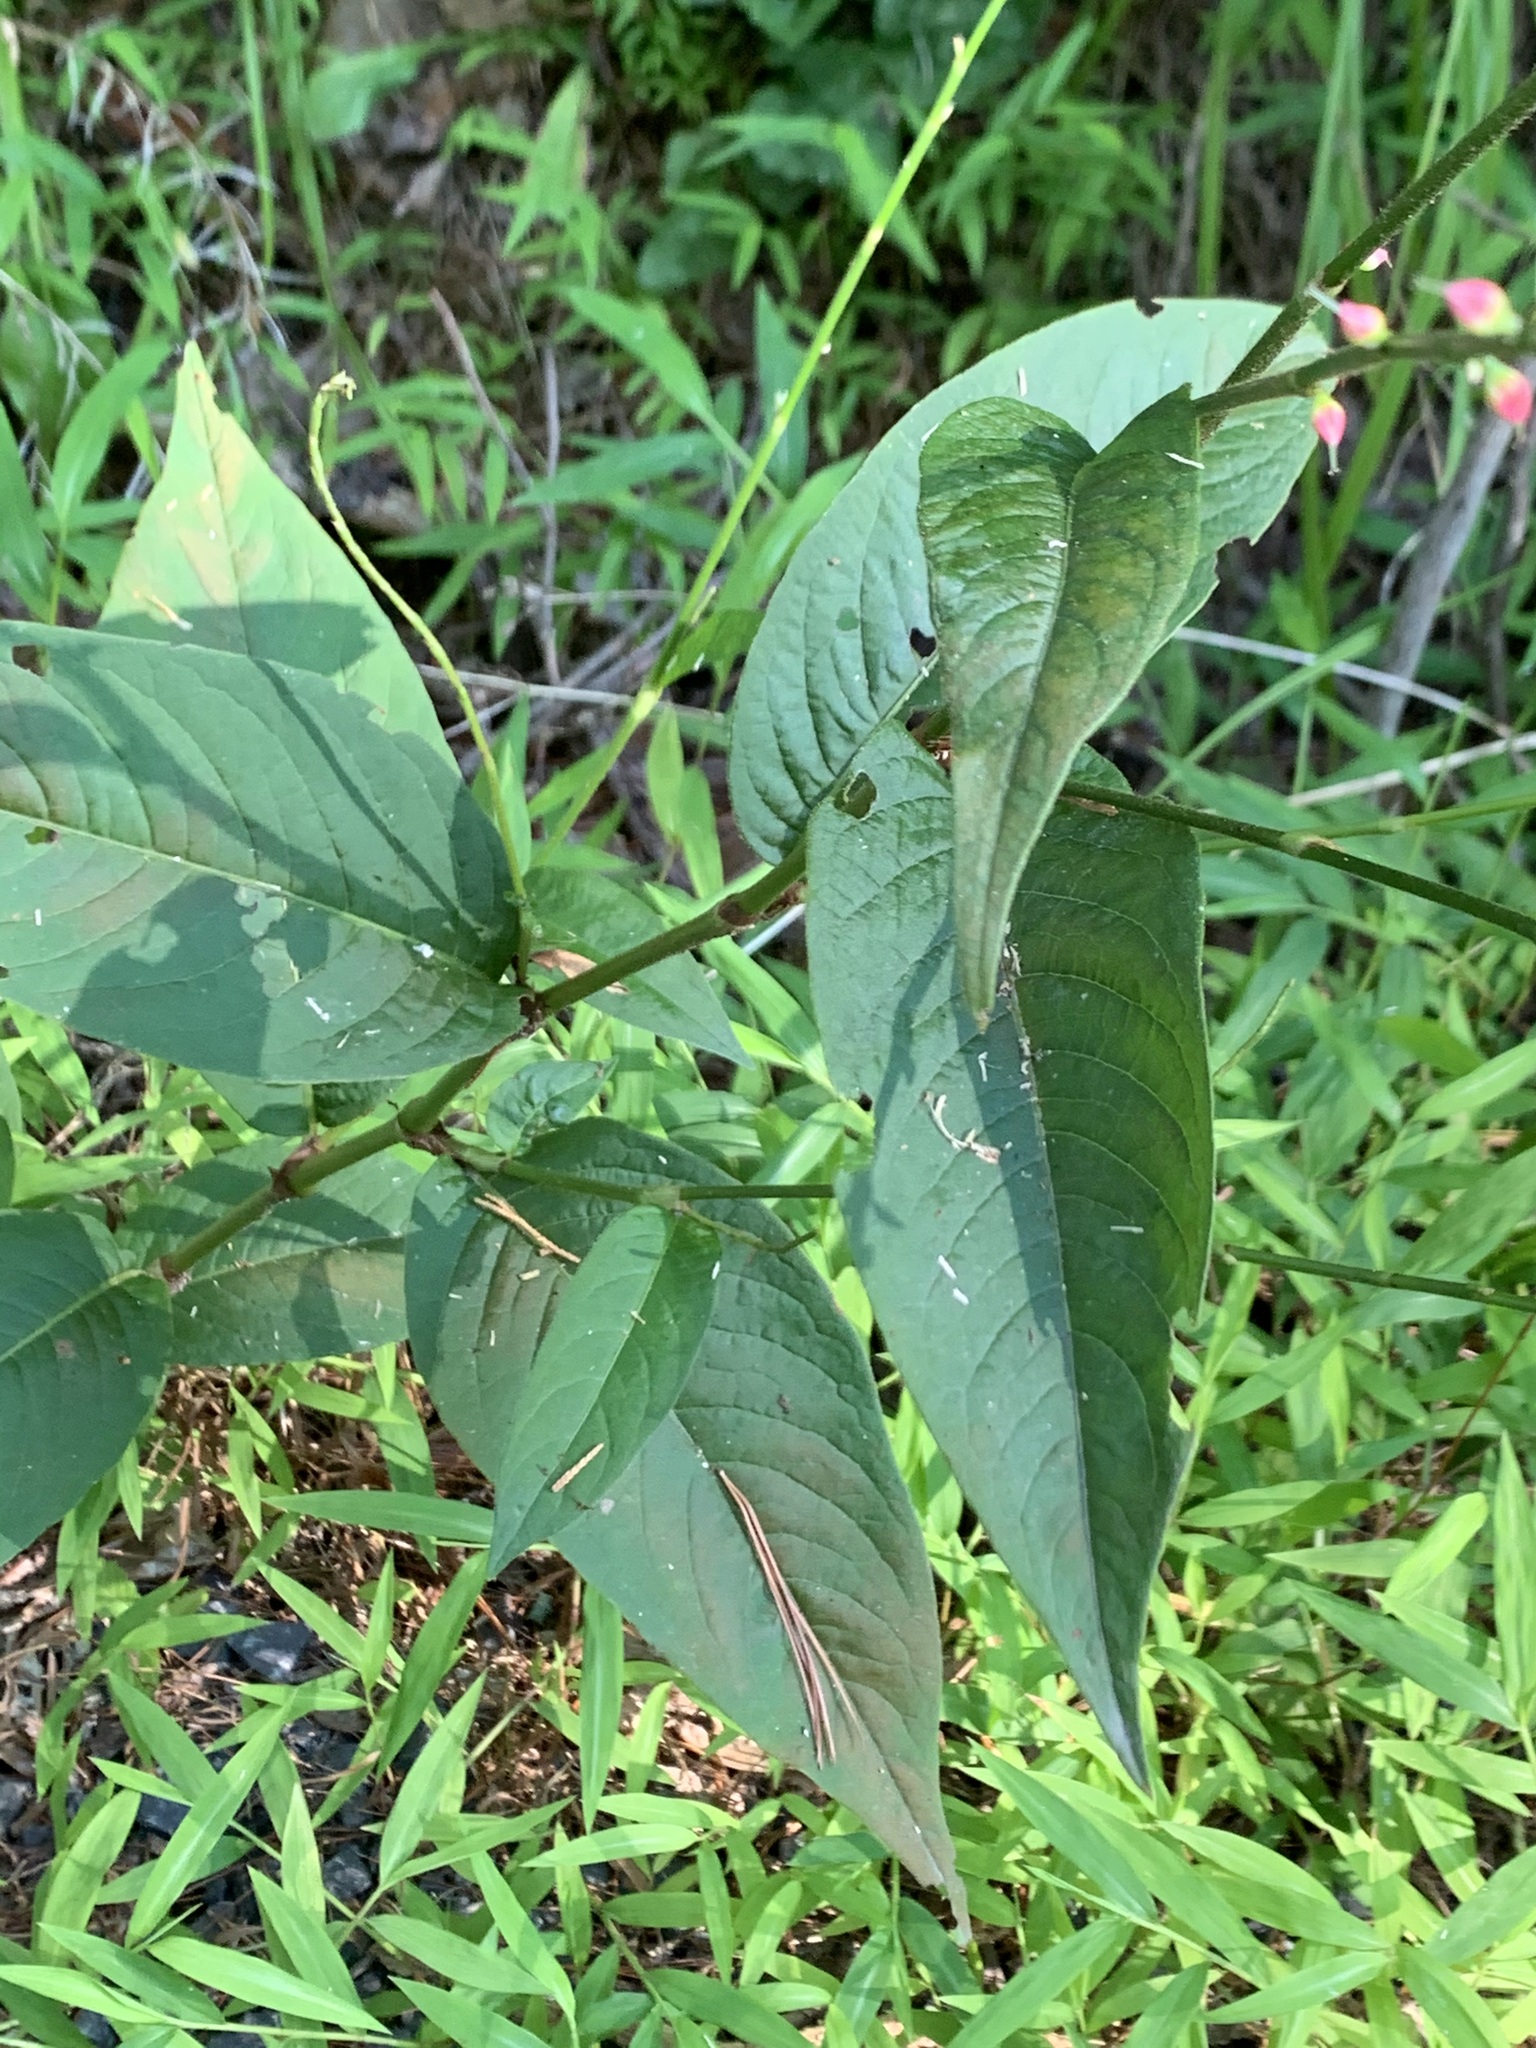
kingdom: Plantae
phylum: Tracheophyta
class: Magnoliopsida
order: Caryophyllales
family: Polygonaceae
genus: Persicaria
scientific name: Persicaria virginiana
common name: Jumpseed
